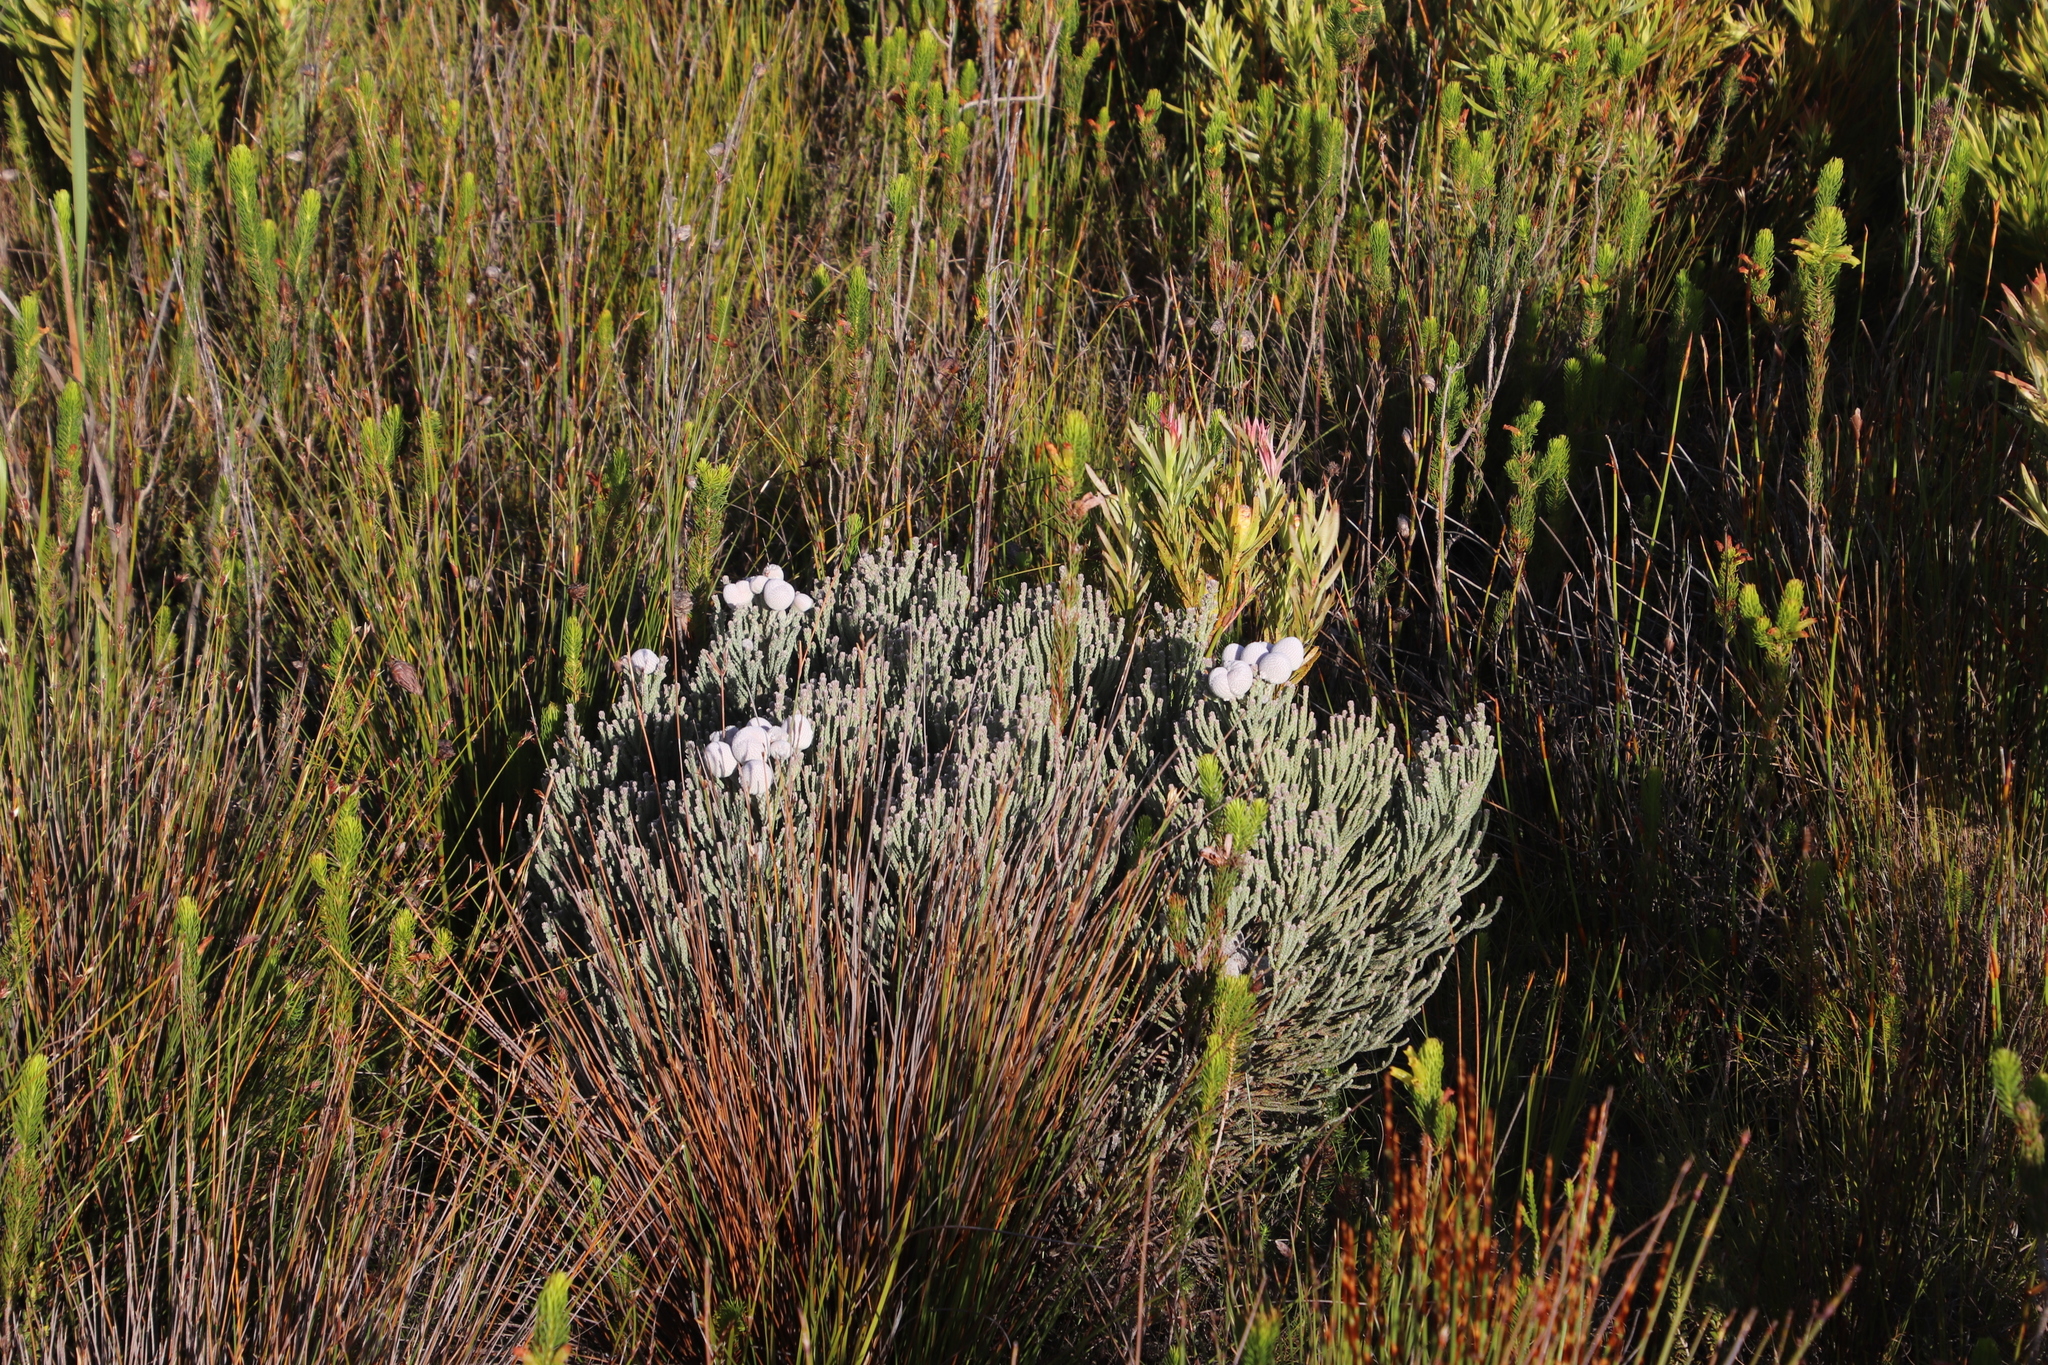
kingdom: Plantae
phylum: Tracheophyta
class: Magnoliopsida
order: Bruniales
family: Bruniaceae
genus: Brunia
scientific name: Brunia laevis
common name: Silver brunia
